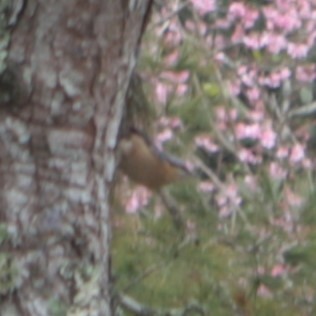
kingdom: Animalia
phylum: Chordata
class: Aves
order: Passeriformes
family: Sittidae
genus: Sitta
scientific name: Sitta europaea
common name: Eurasian nuthatch
